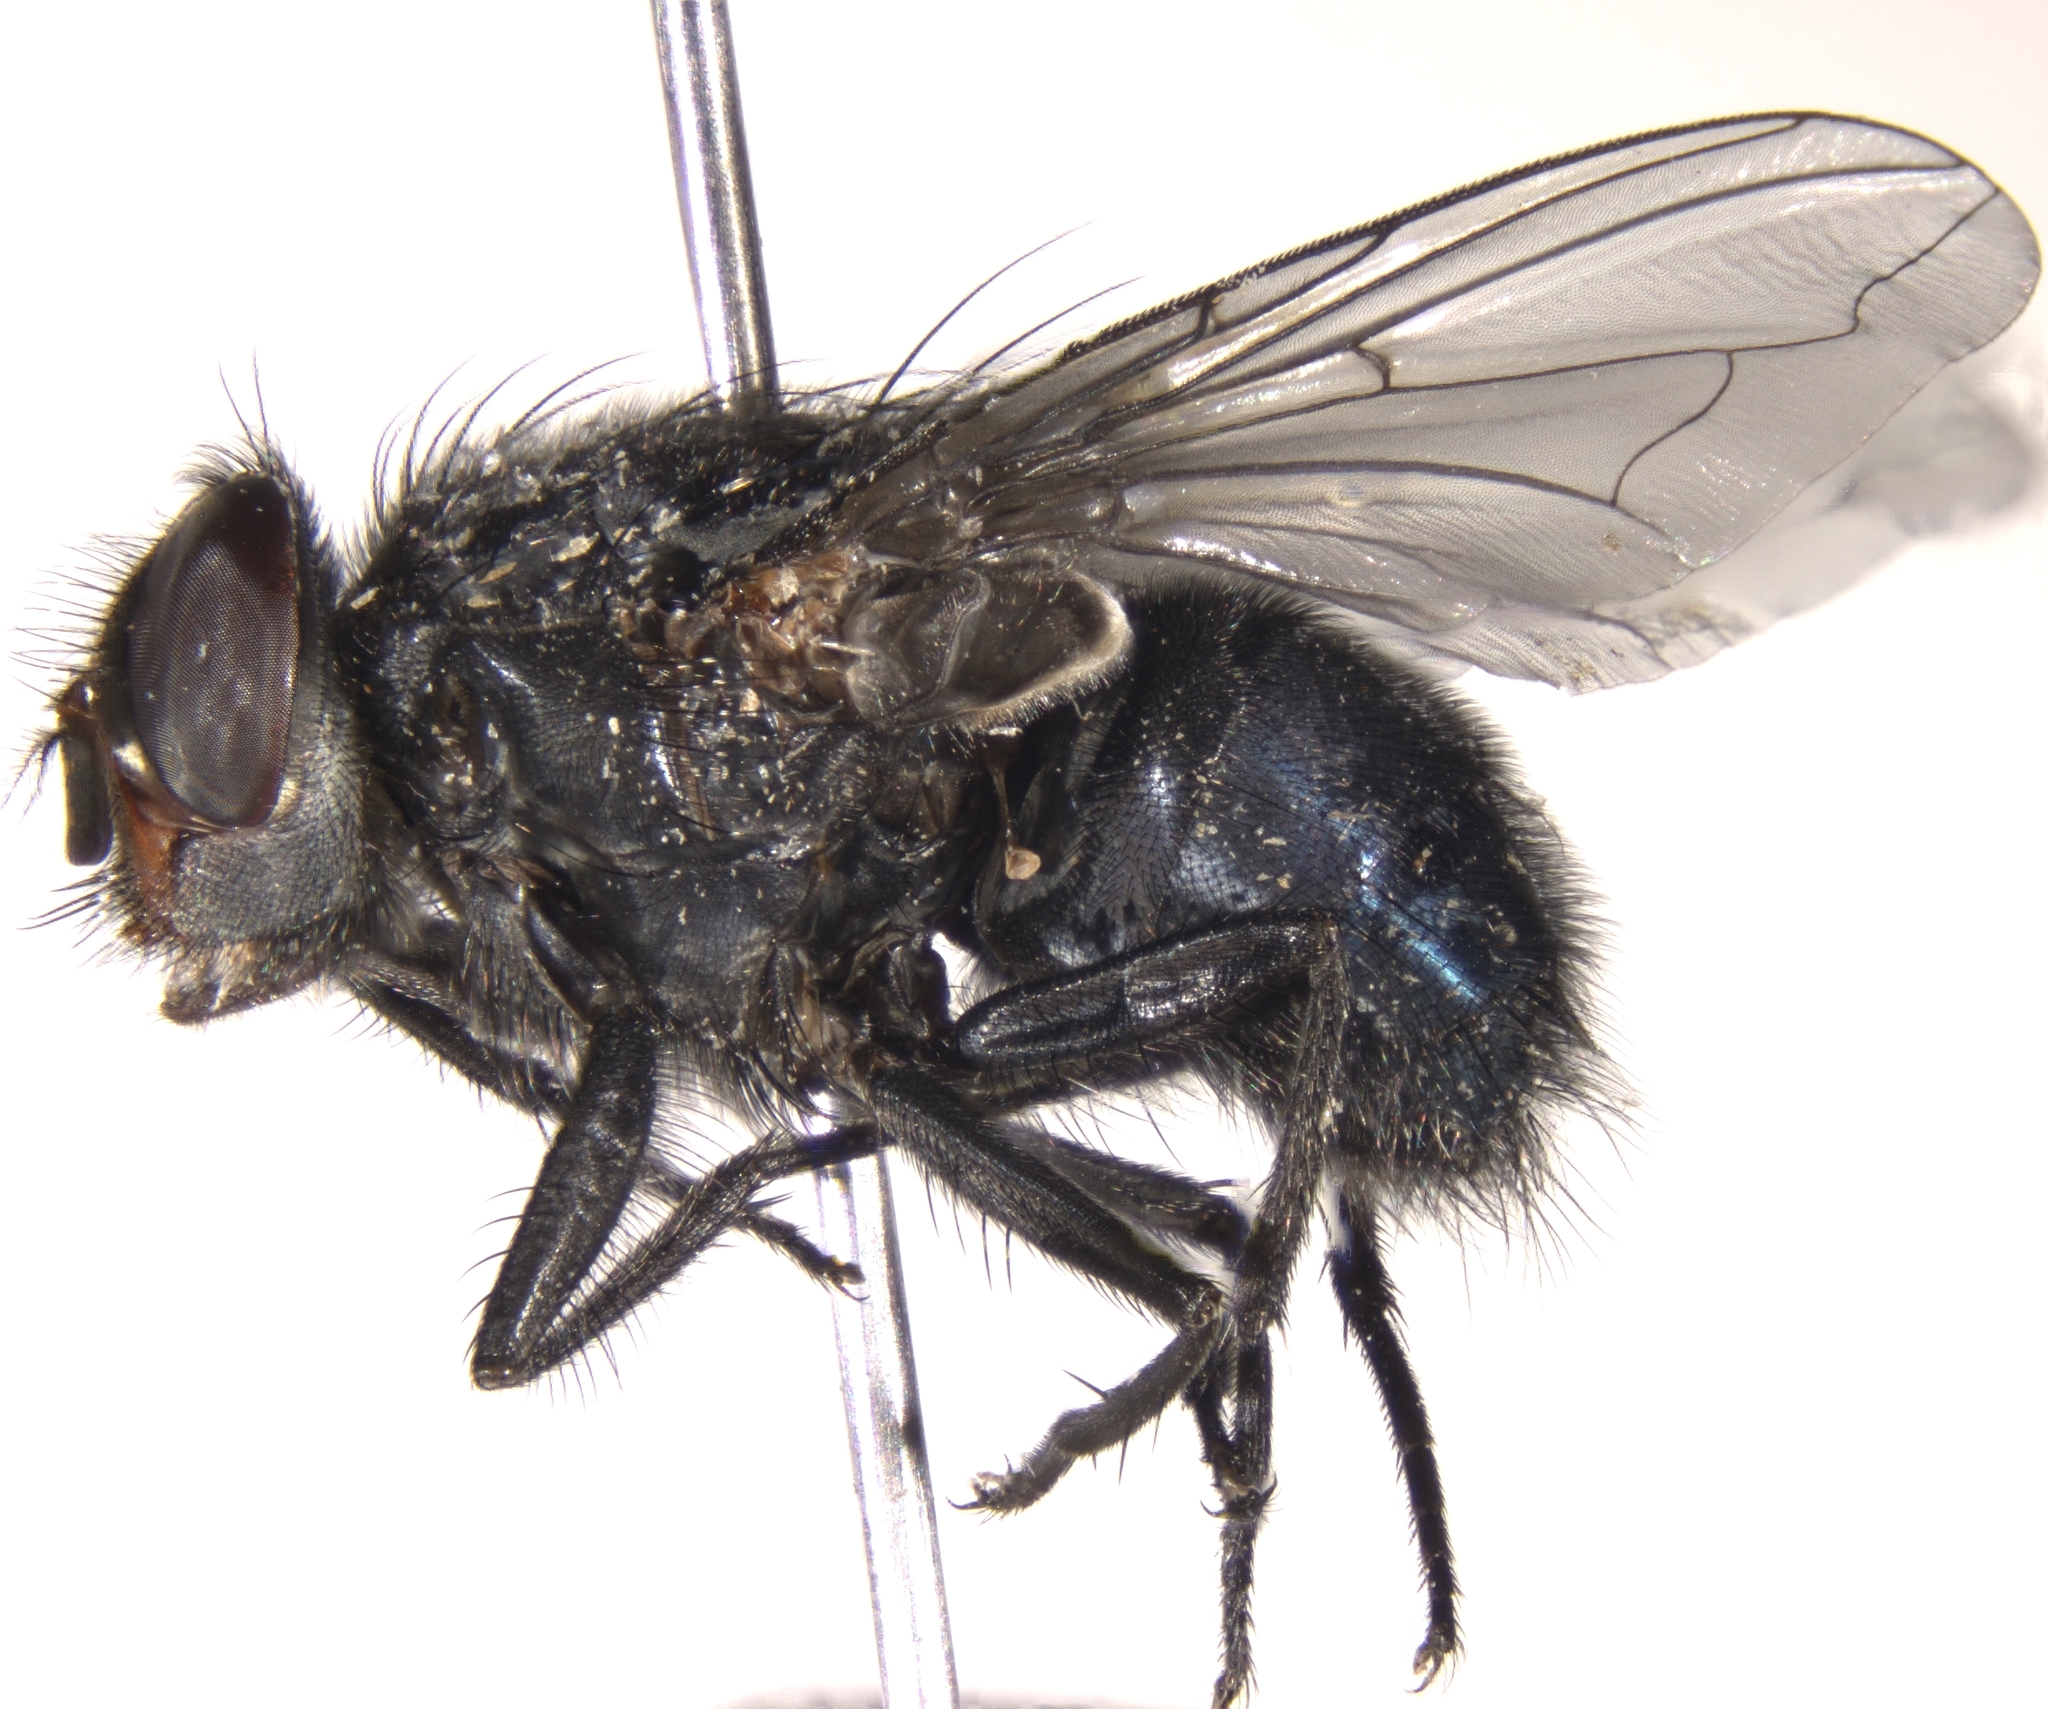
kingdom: Animalia
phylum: Arthropoda
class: Insecta
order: Diptera
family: Calliphoridae
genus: Calliphora
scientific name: Calliphora livida
